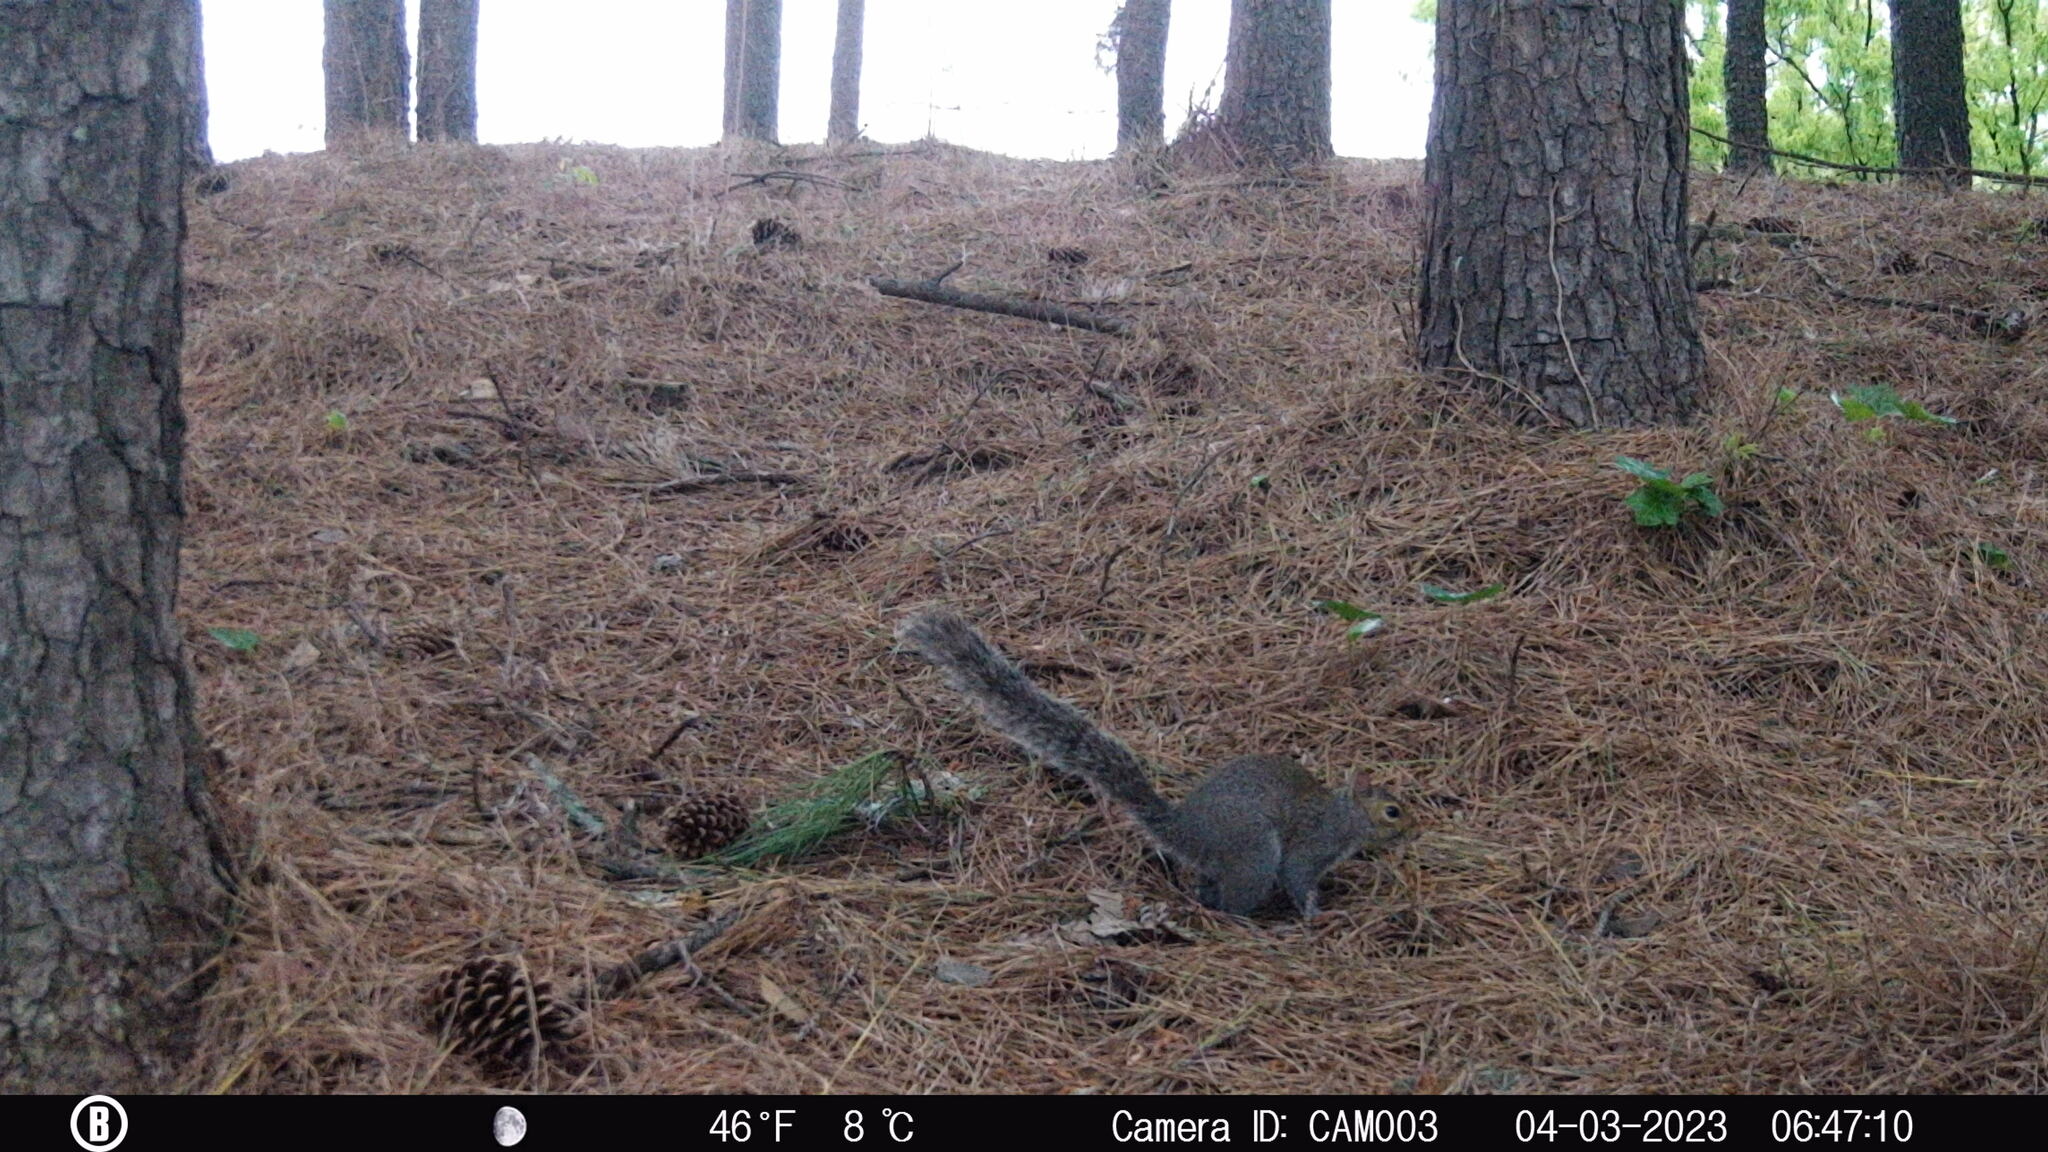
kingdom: Animalia
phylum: Chordata
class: Mammalia
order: Rodentia
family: Sciuridae
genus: Sciurus
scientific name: Sciurus carolinensis
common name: Eastern gray squirrel
